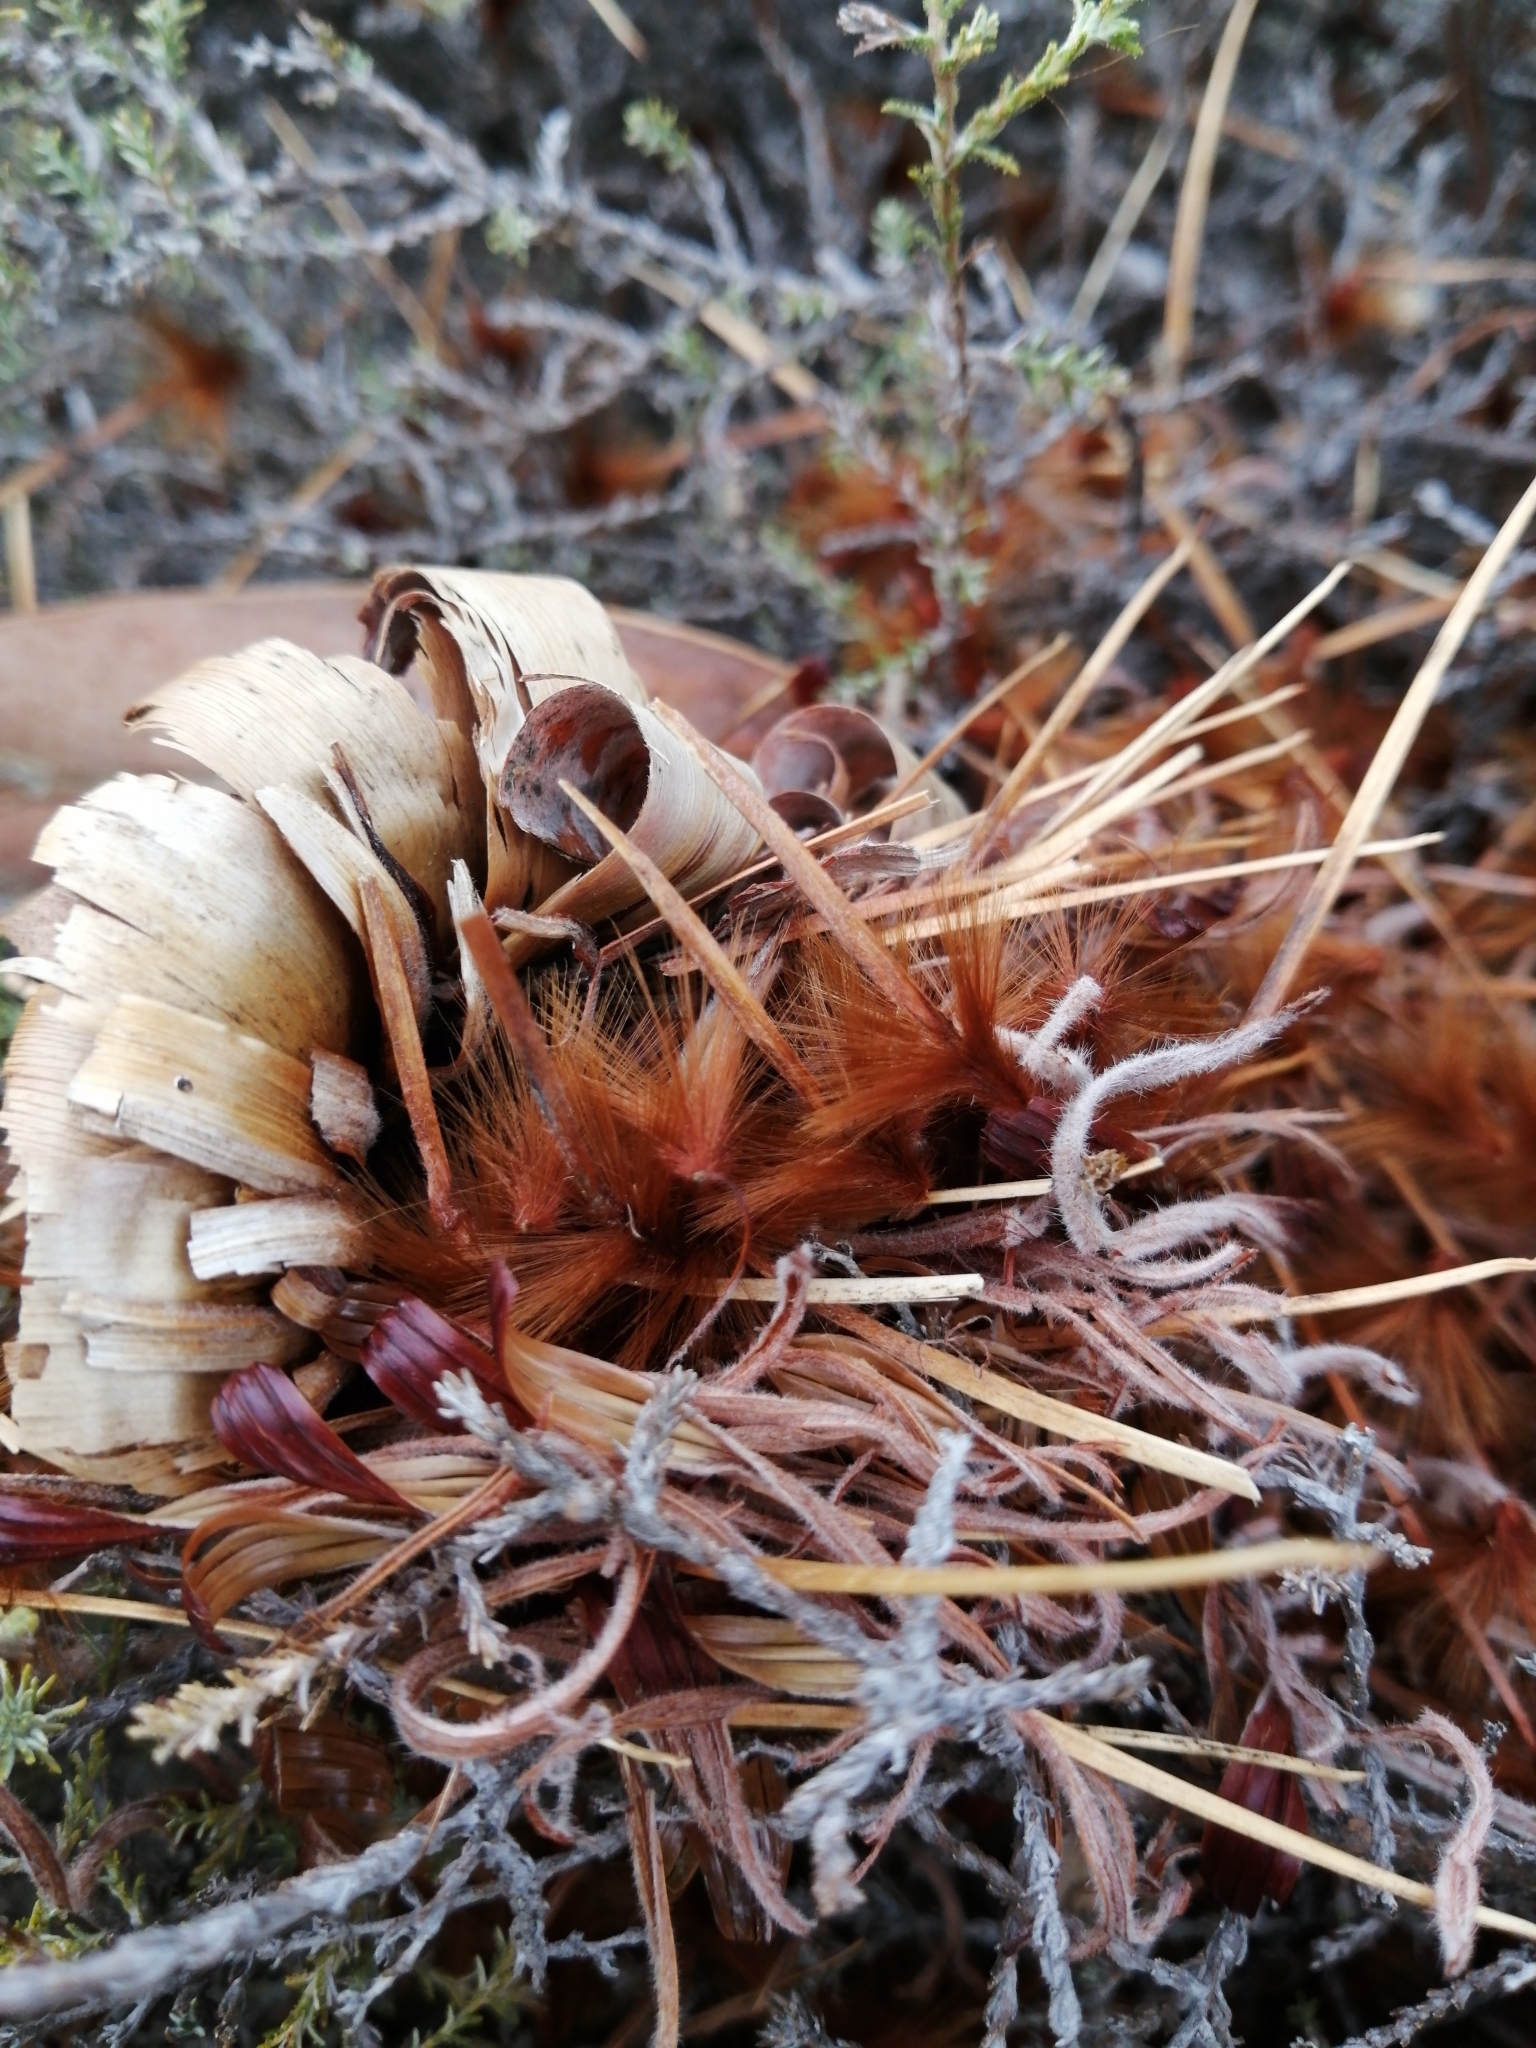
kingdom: Plantae
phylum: Tracheophyta
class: Magnoliopsida
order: Proteales
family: Proteaceae
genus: Protea
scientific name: Protea laurifolia
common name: Grey-leaf sugarbsh
